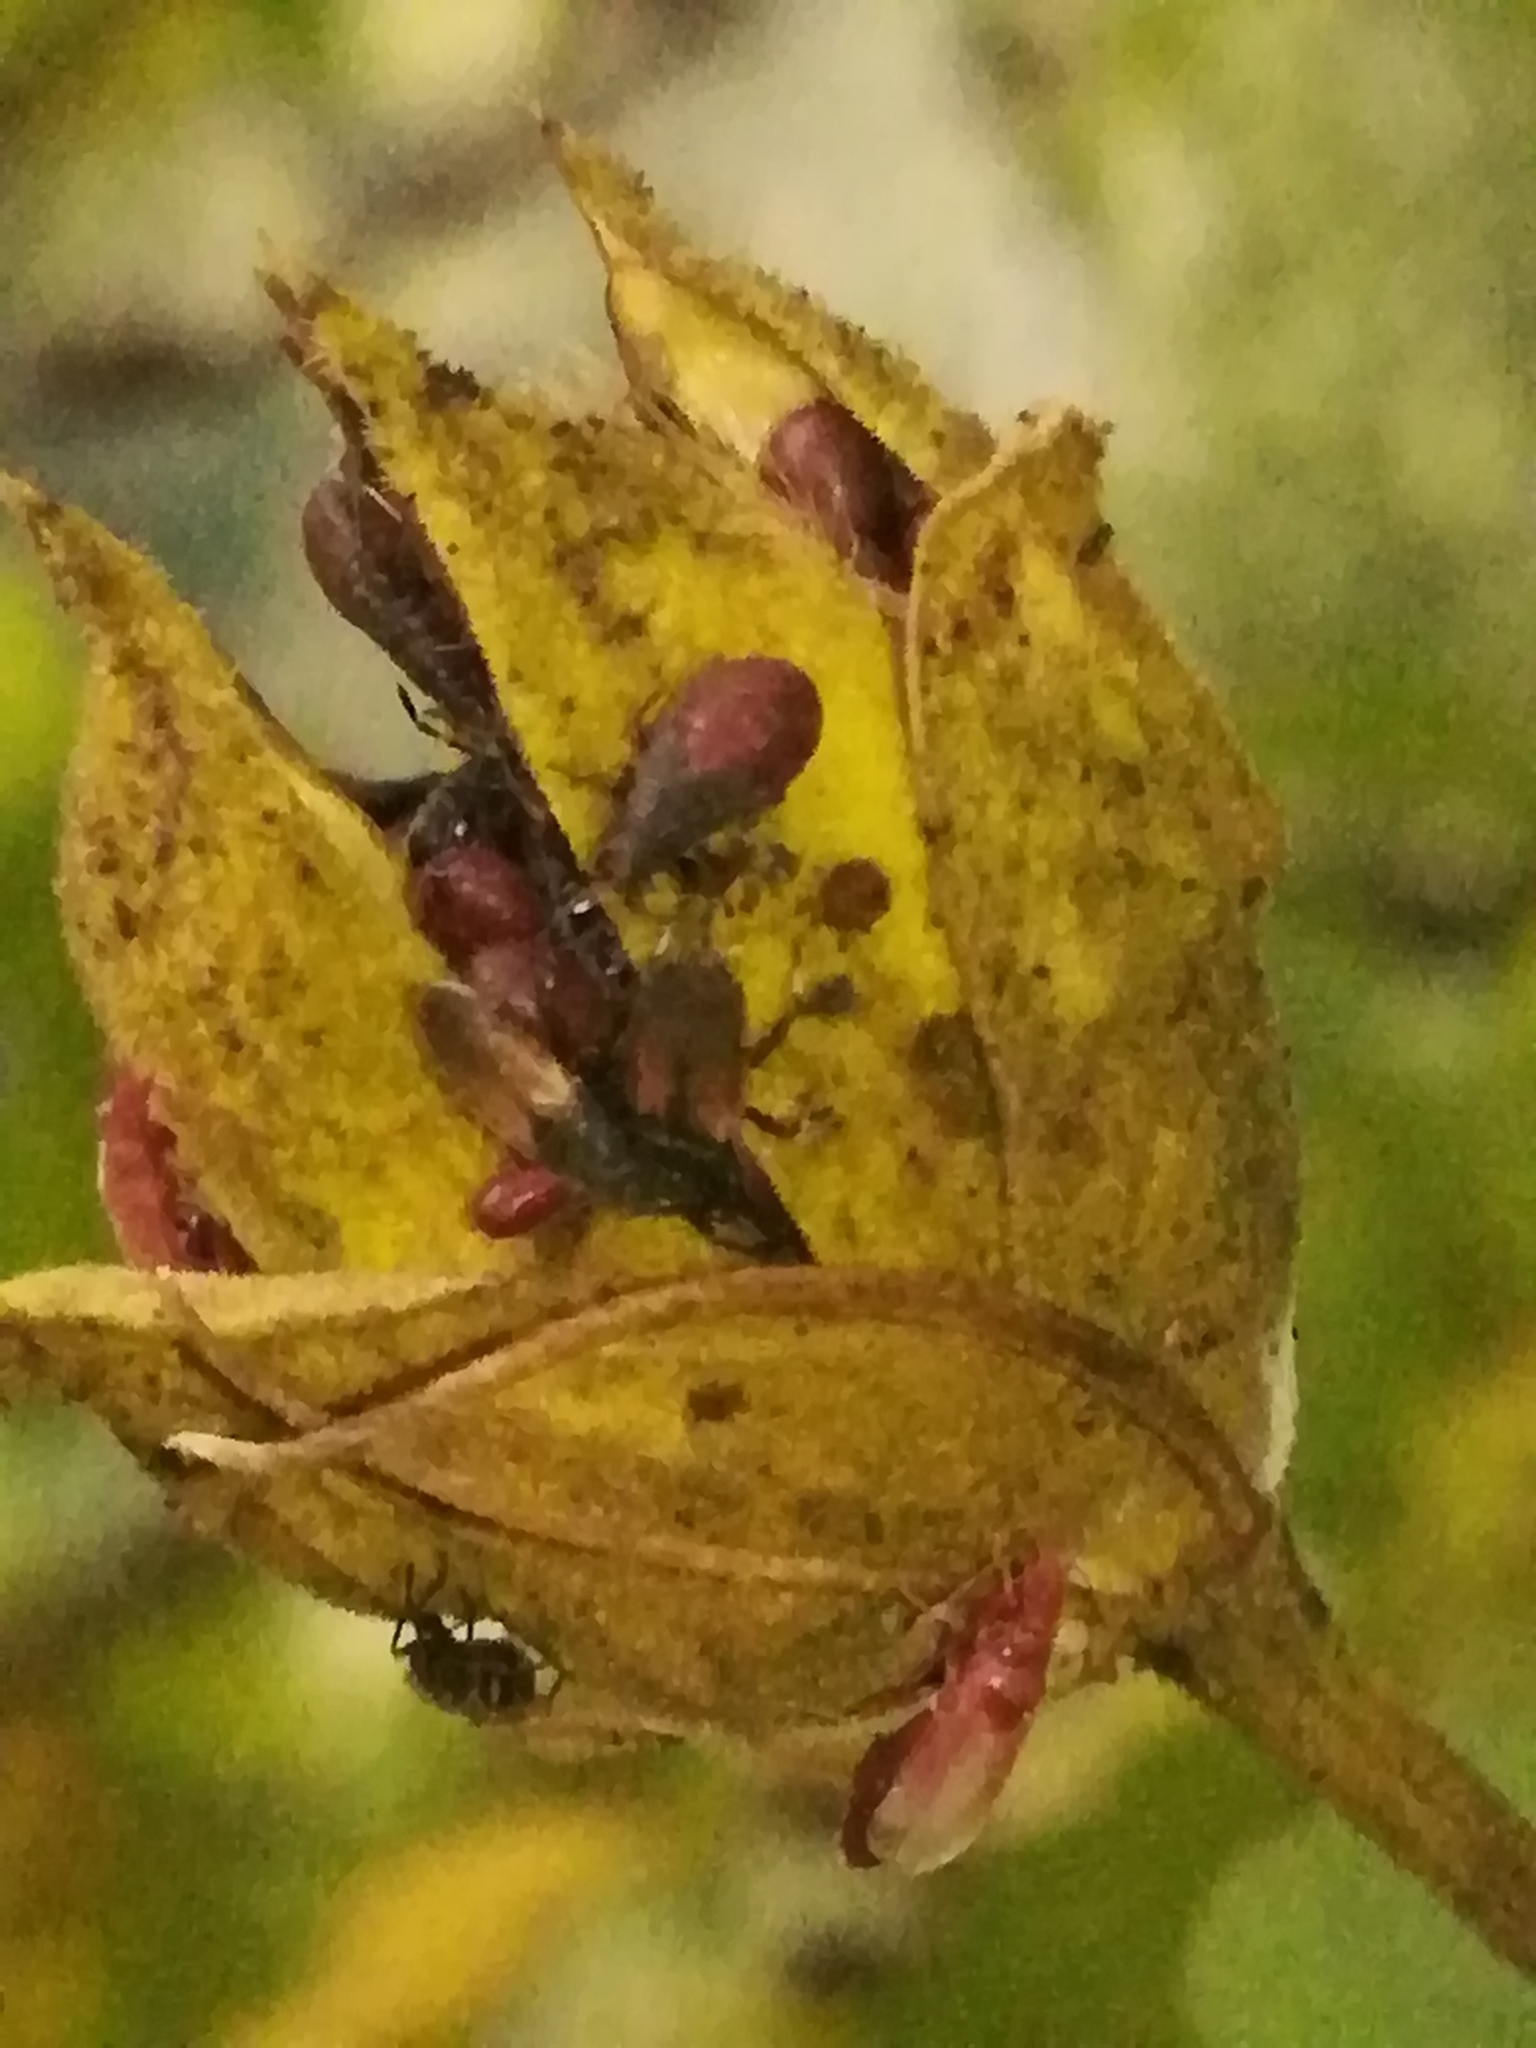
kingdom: Animalia
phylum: Arthropoda
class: Insecta
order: Hemiptera
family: Oxycarenidae
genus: Oxycarenus
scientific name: Oxycarenus hyalinipennis
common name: Cotton seed bug
